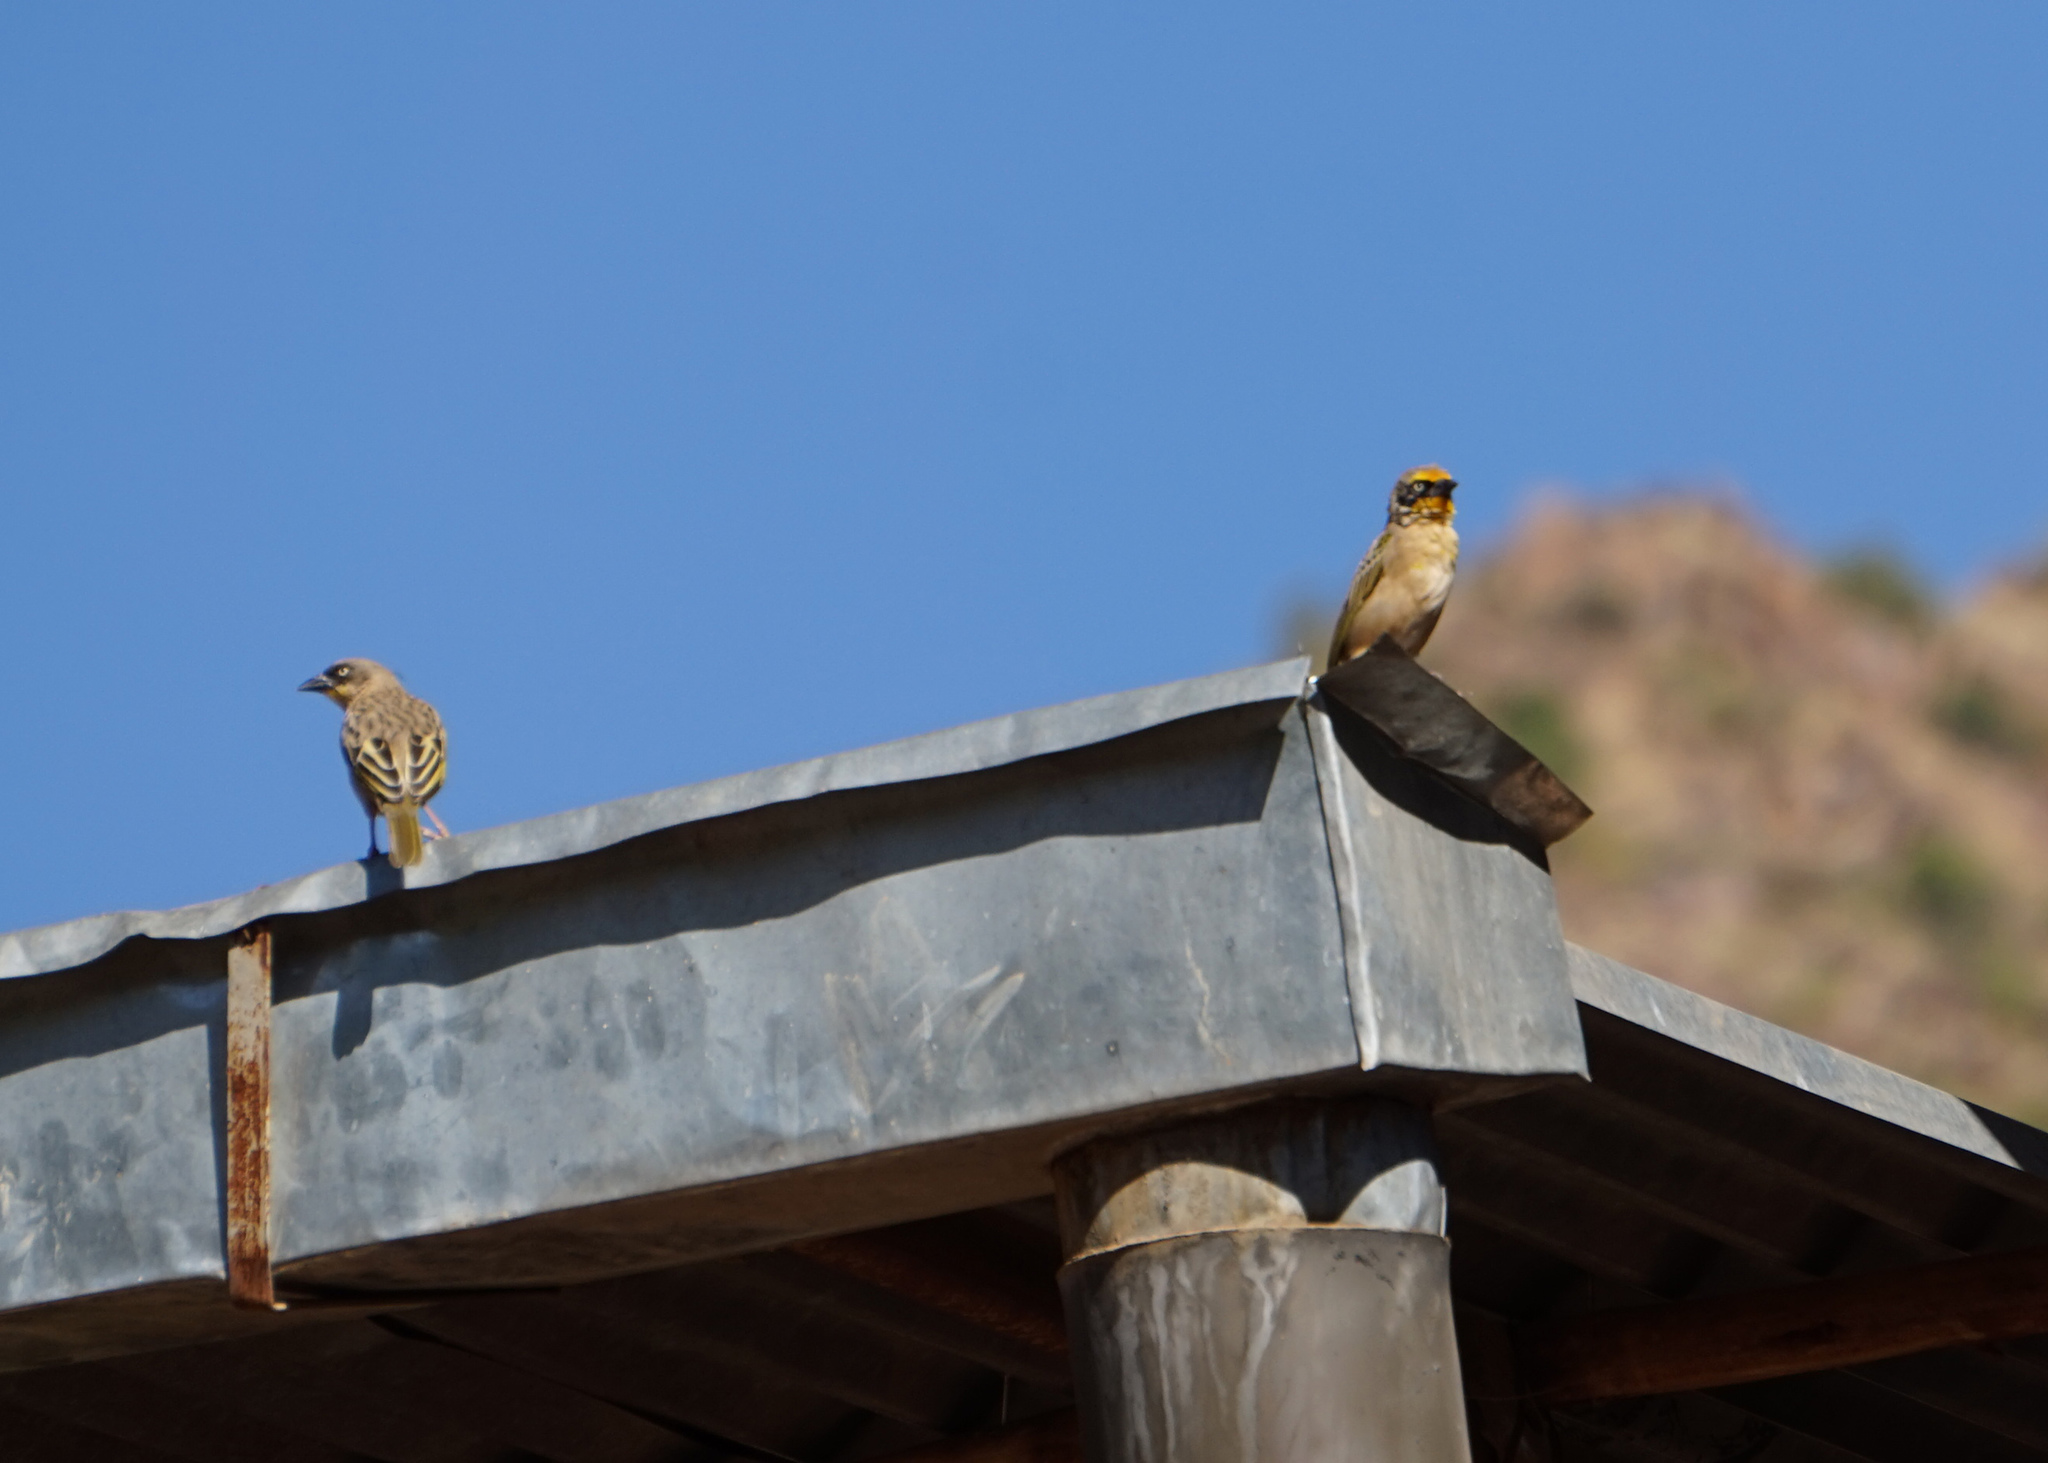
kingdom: Animalia
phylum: Chordata
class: Aves
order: Passeriformes
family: Ploceidae
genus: Ploceus
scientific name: Ploceus baglafecht
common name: Baglafecht weaver
